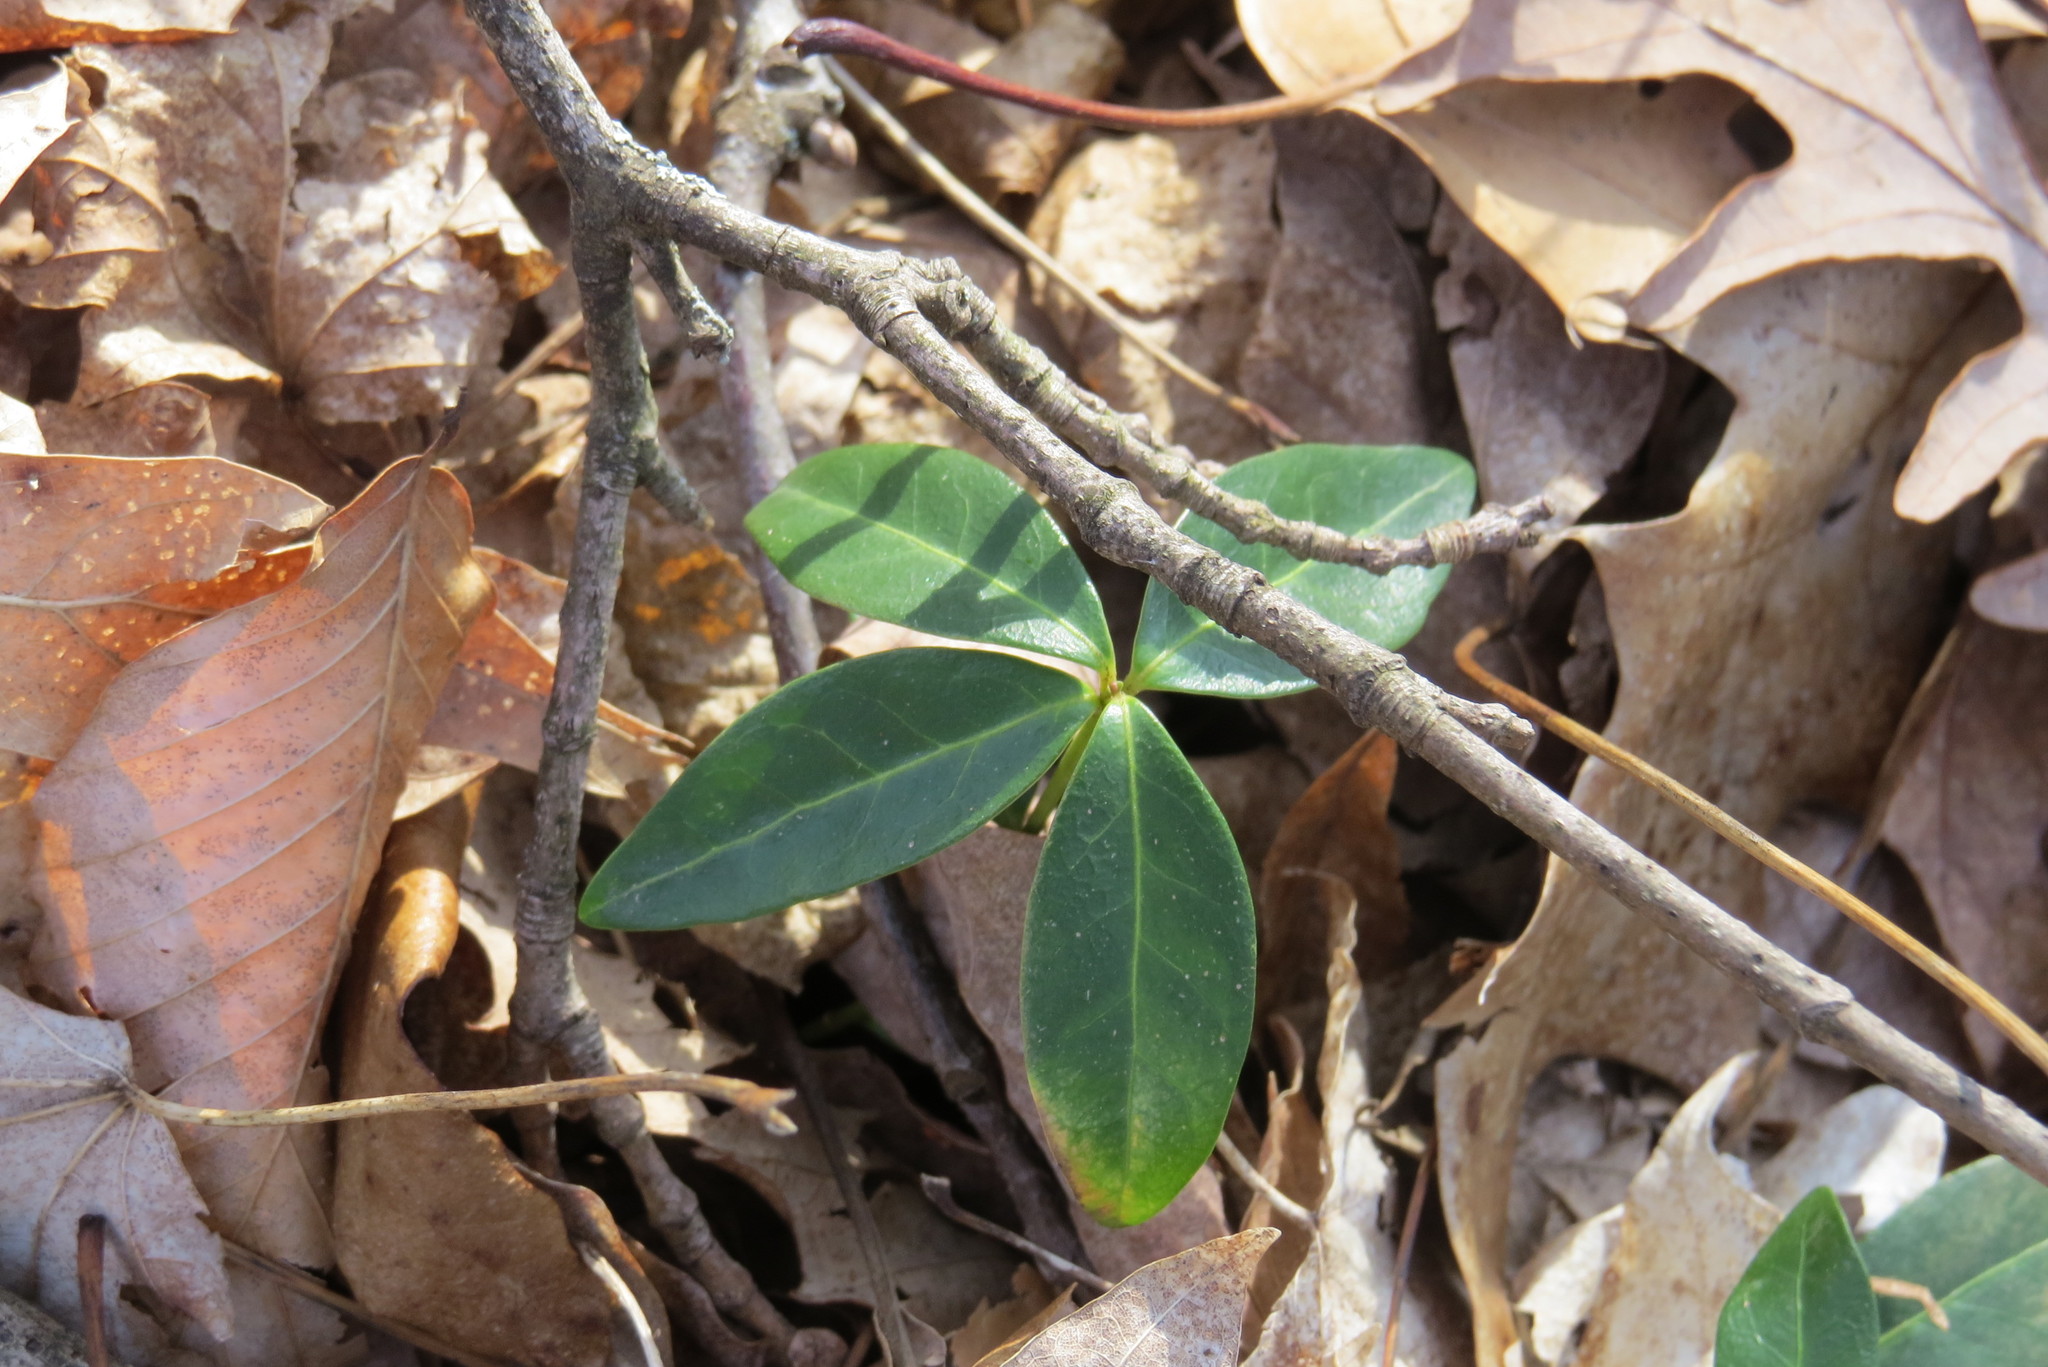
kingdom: Plantae
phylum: Tracheophyta
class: Magnoliopsida
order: Gentianales
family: Apocynaceae
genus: Vinca
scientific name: Vinca minor
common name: Lesser periwinkle
